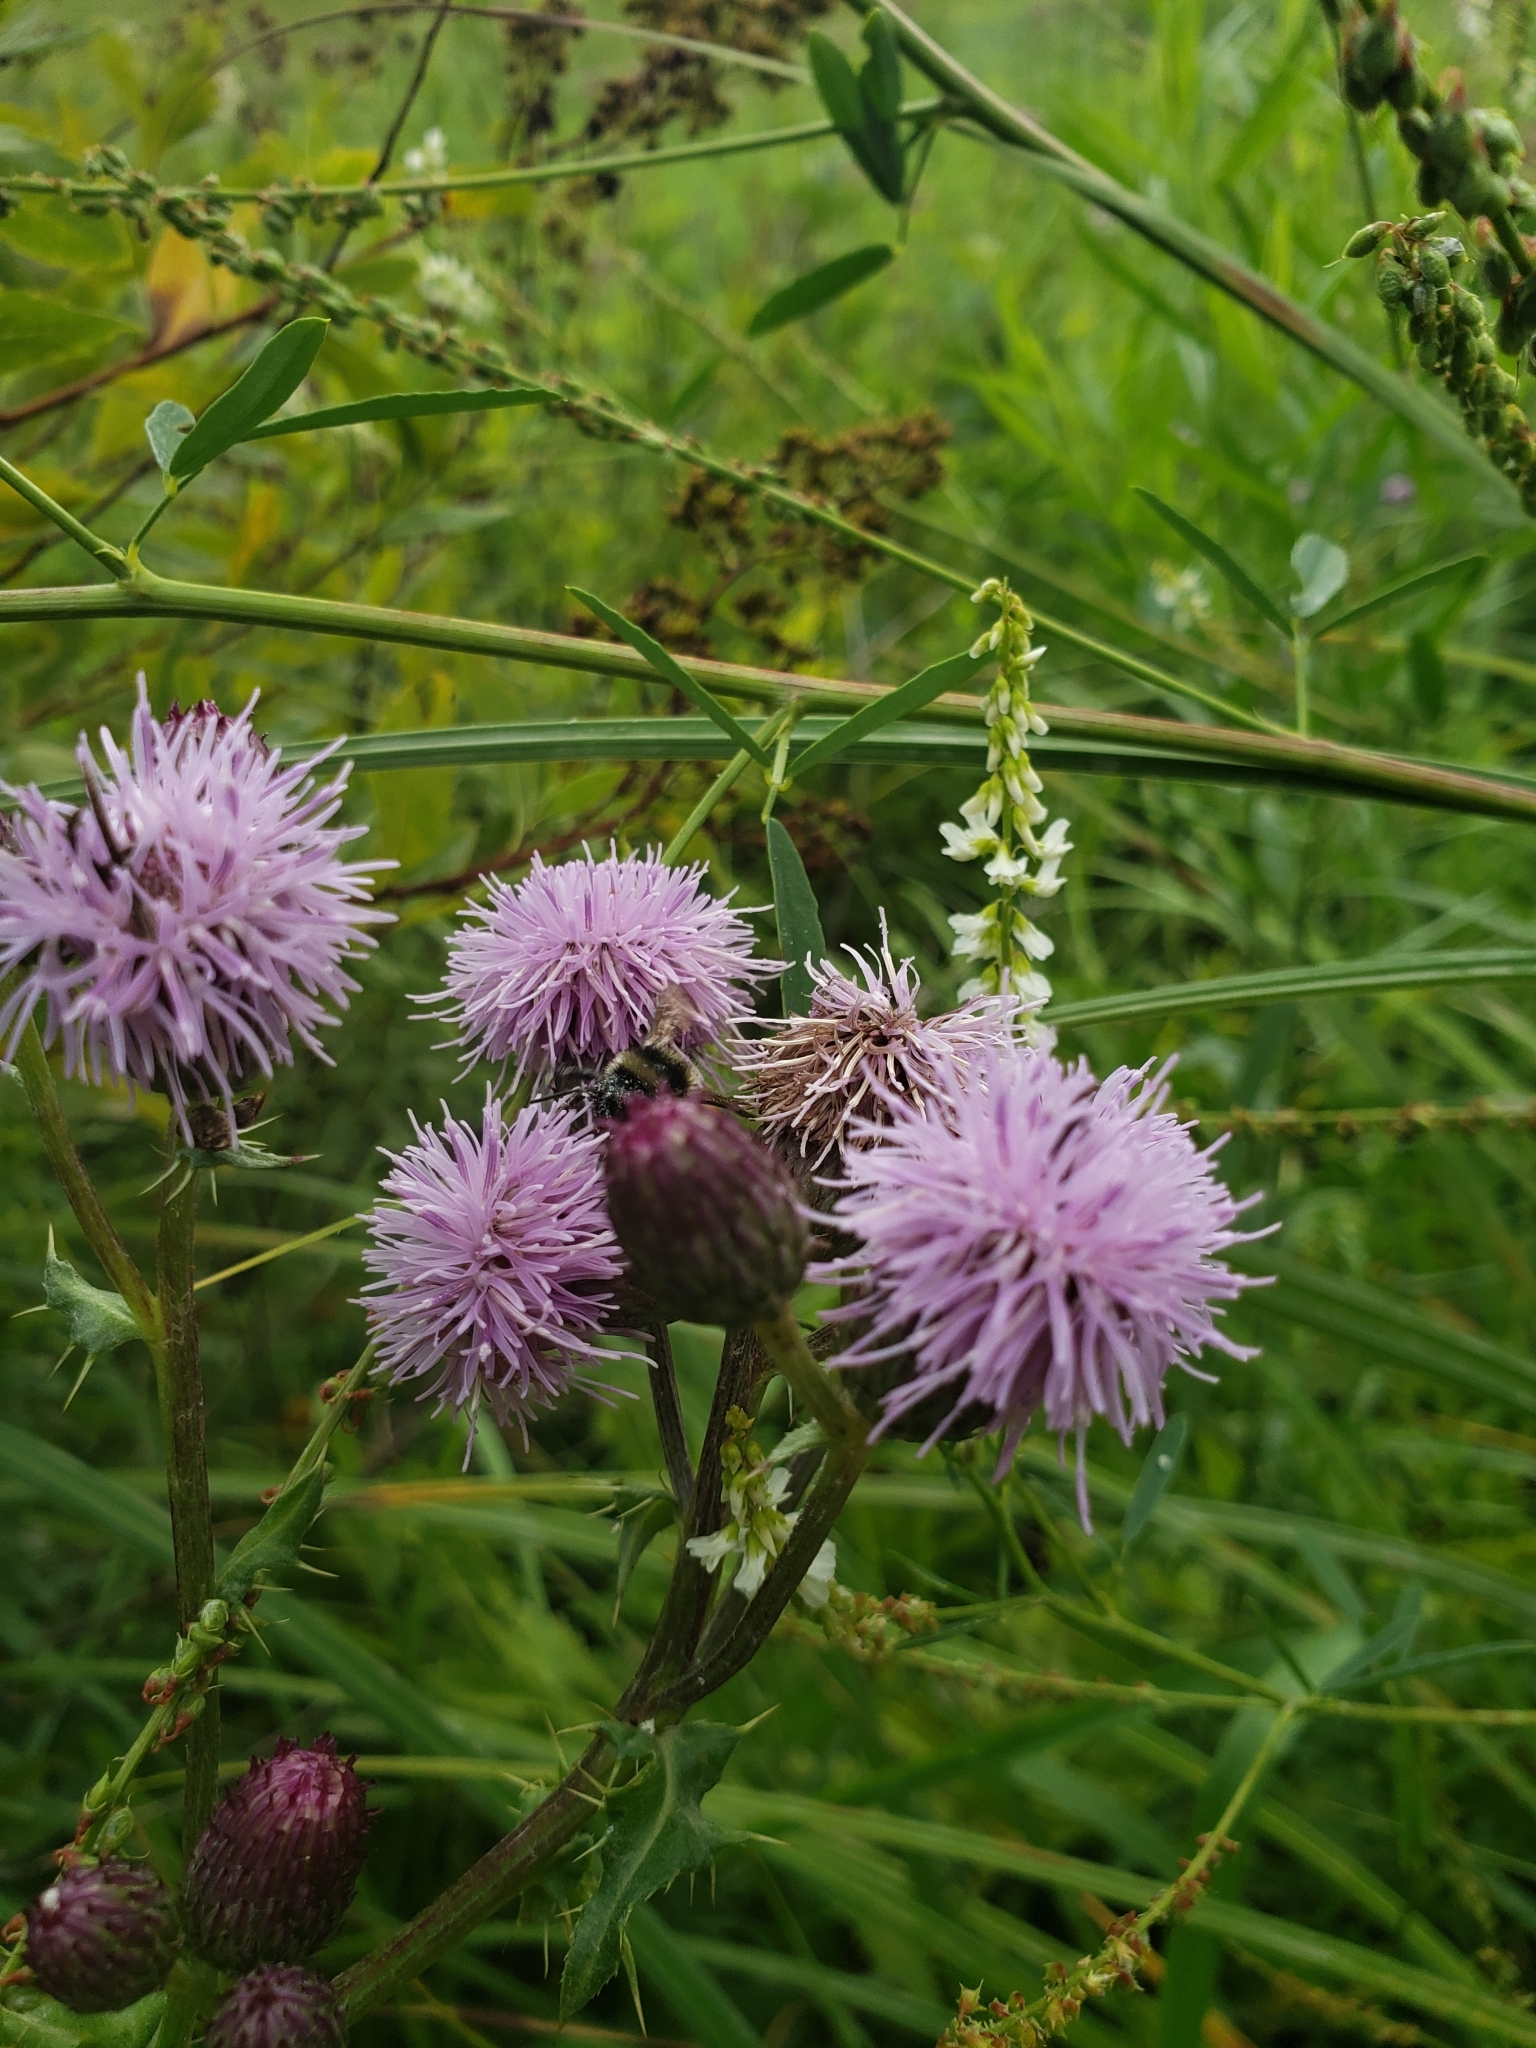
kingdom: Plantae
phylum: Tracheophyta
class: Magnoliopsida
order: Asterales
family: Asteraceae
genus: Cirsium
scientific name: Cirsium arvense
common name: Creeping thistle
